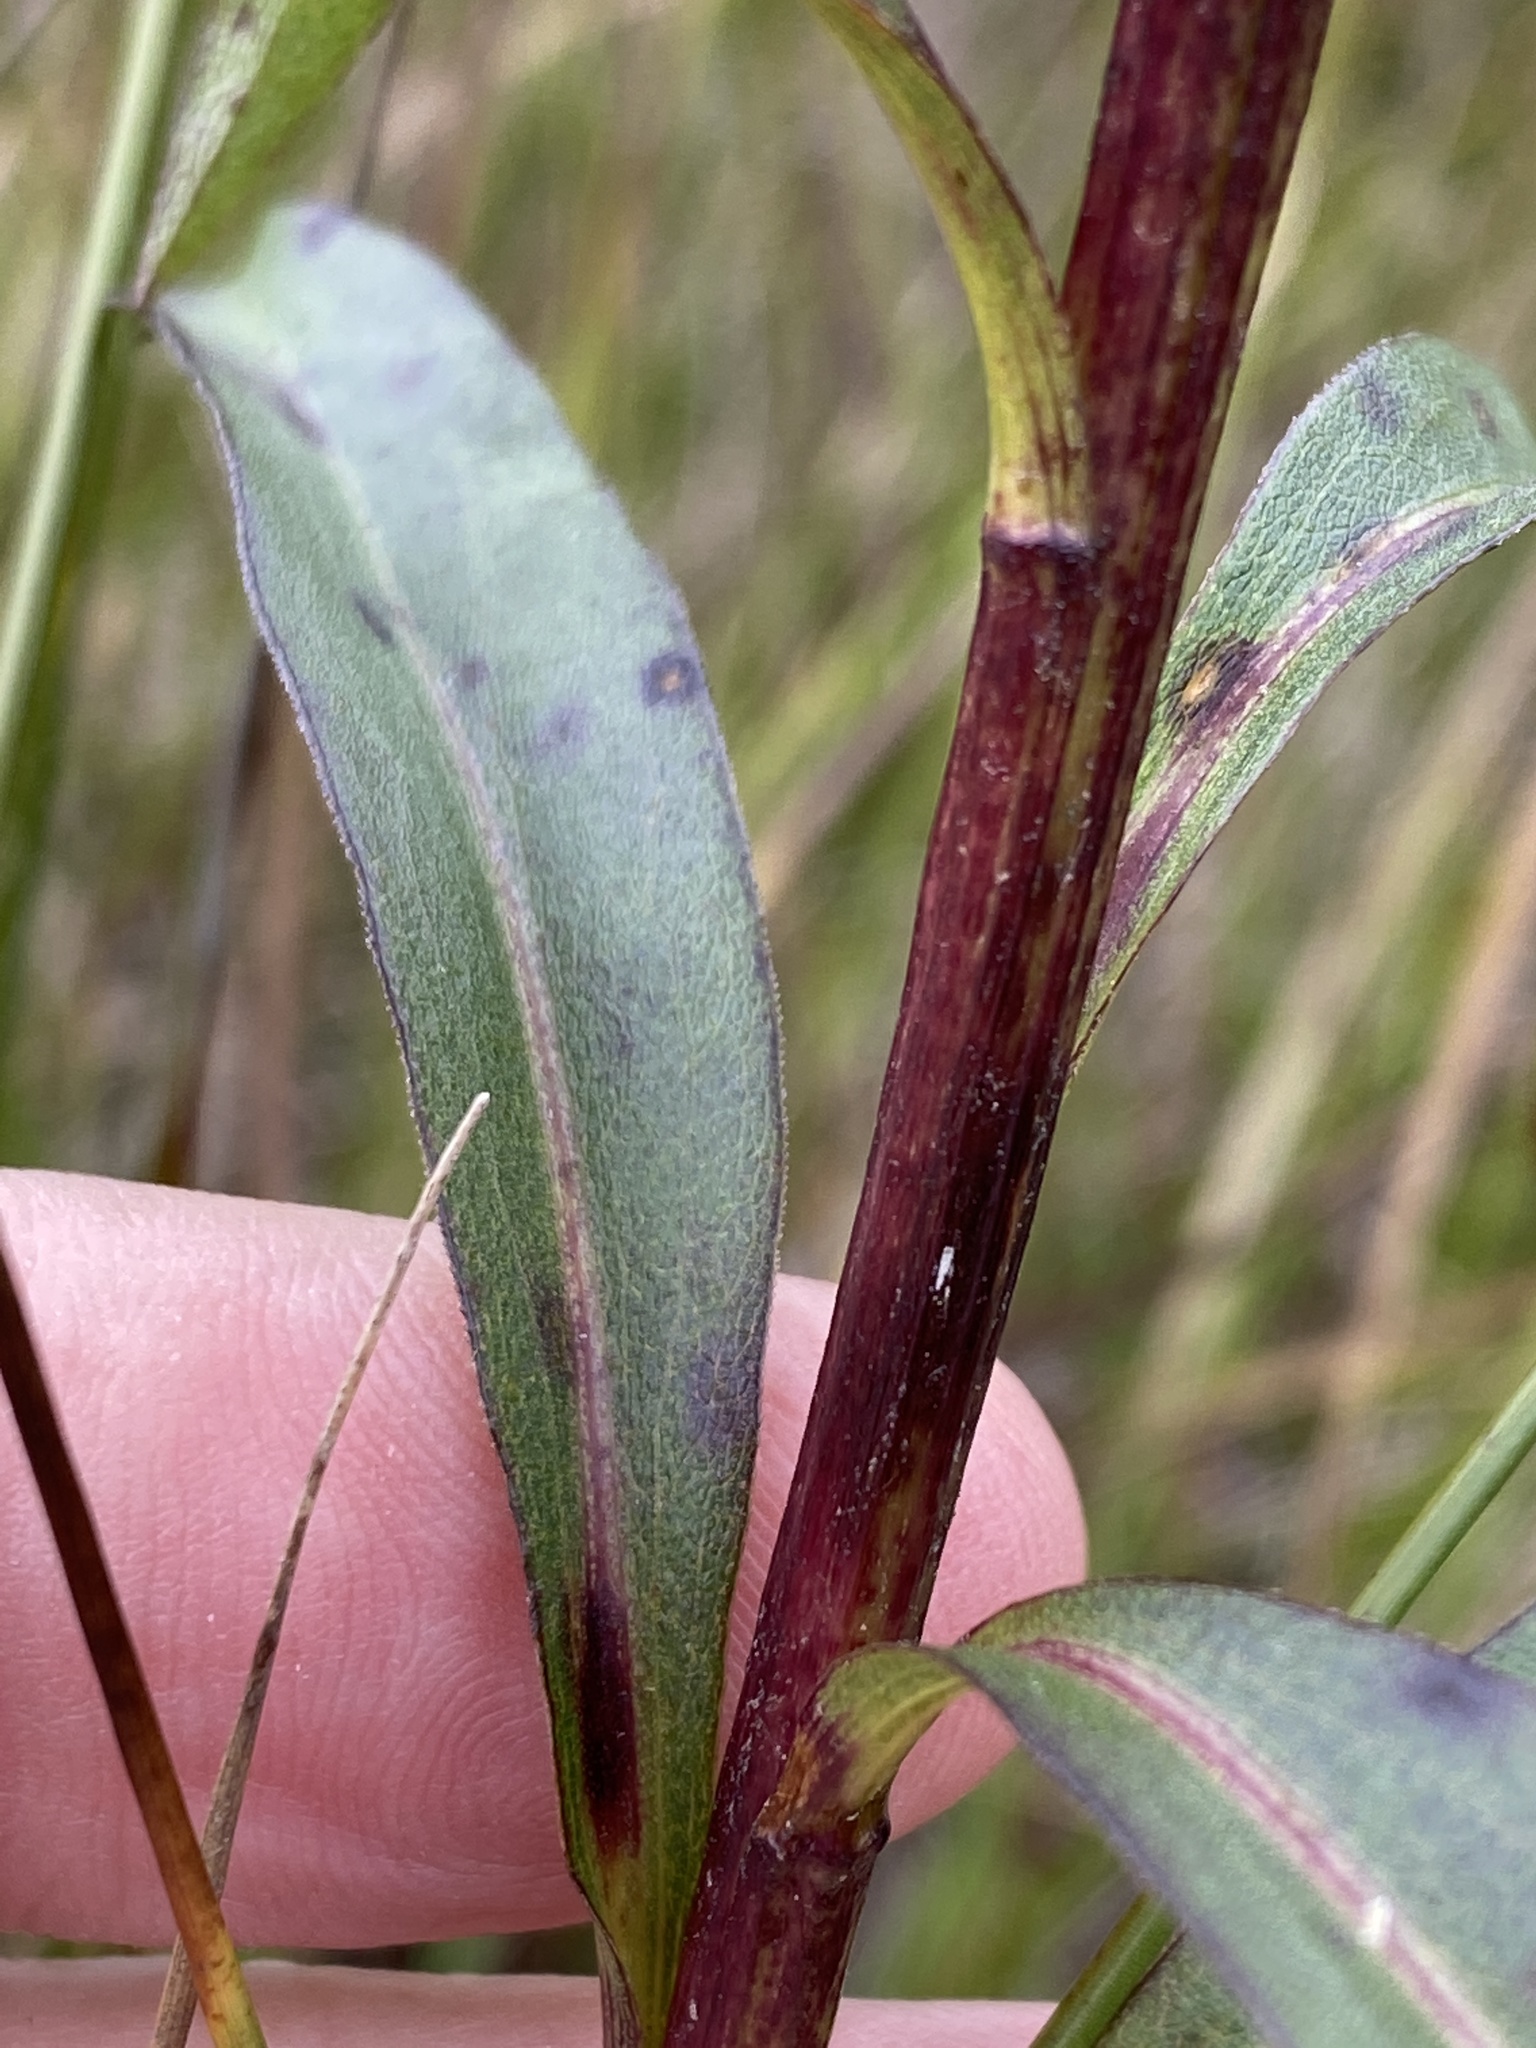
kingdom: Plantae
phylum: Tracheophyta
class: Magnoliopsida
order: Asterales
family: Asteraceae
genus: Solidago
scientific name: Solidago uliginosa
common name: Bog goldenrod
